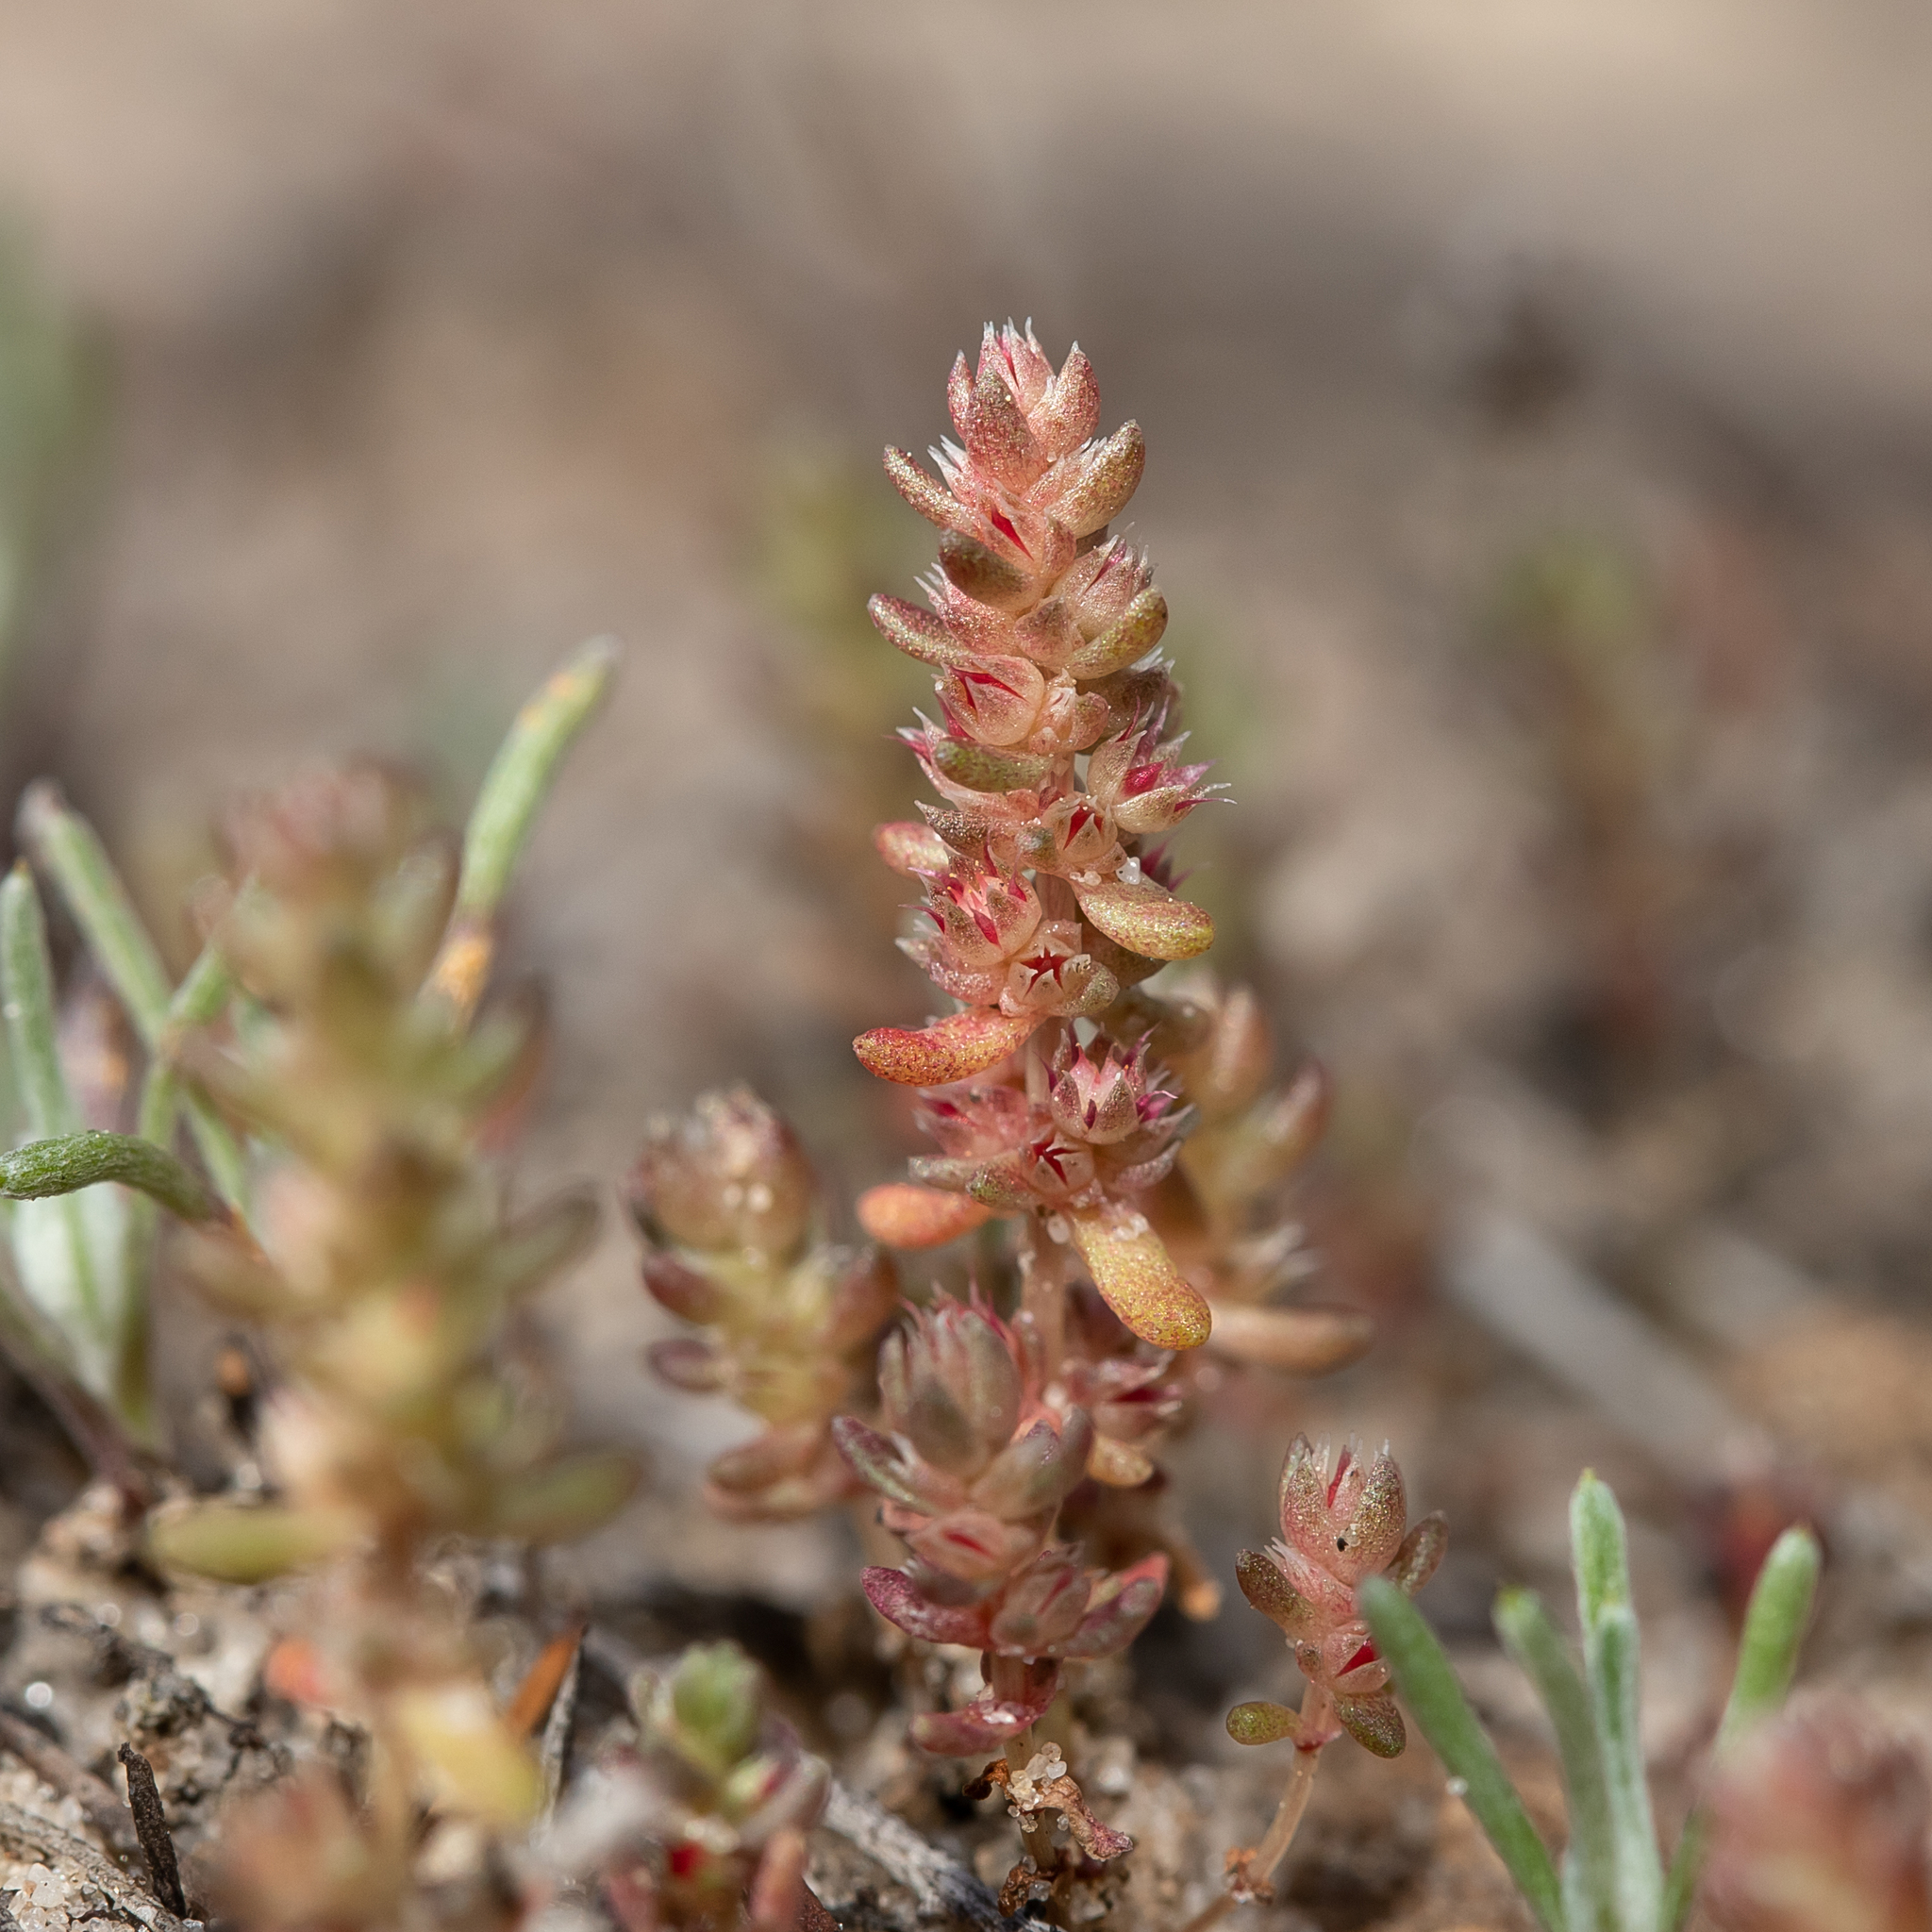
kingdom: Plantae
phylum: Tracheophyta
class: Magnoliopsida
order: Saxifragales
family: Crassulaceae
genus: Crassula
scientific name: Crassula colorata
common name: Dense pigmyweed
